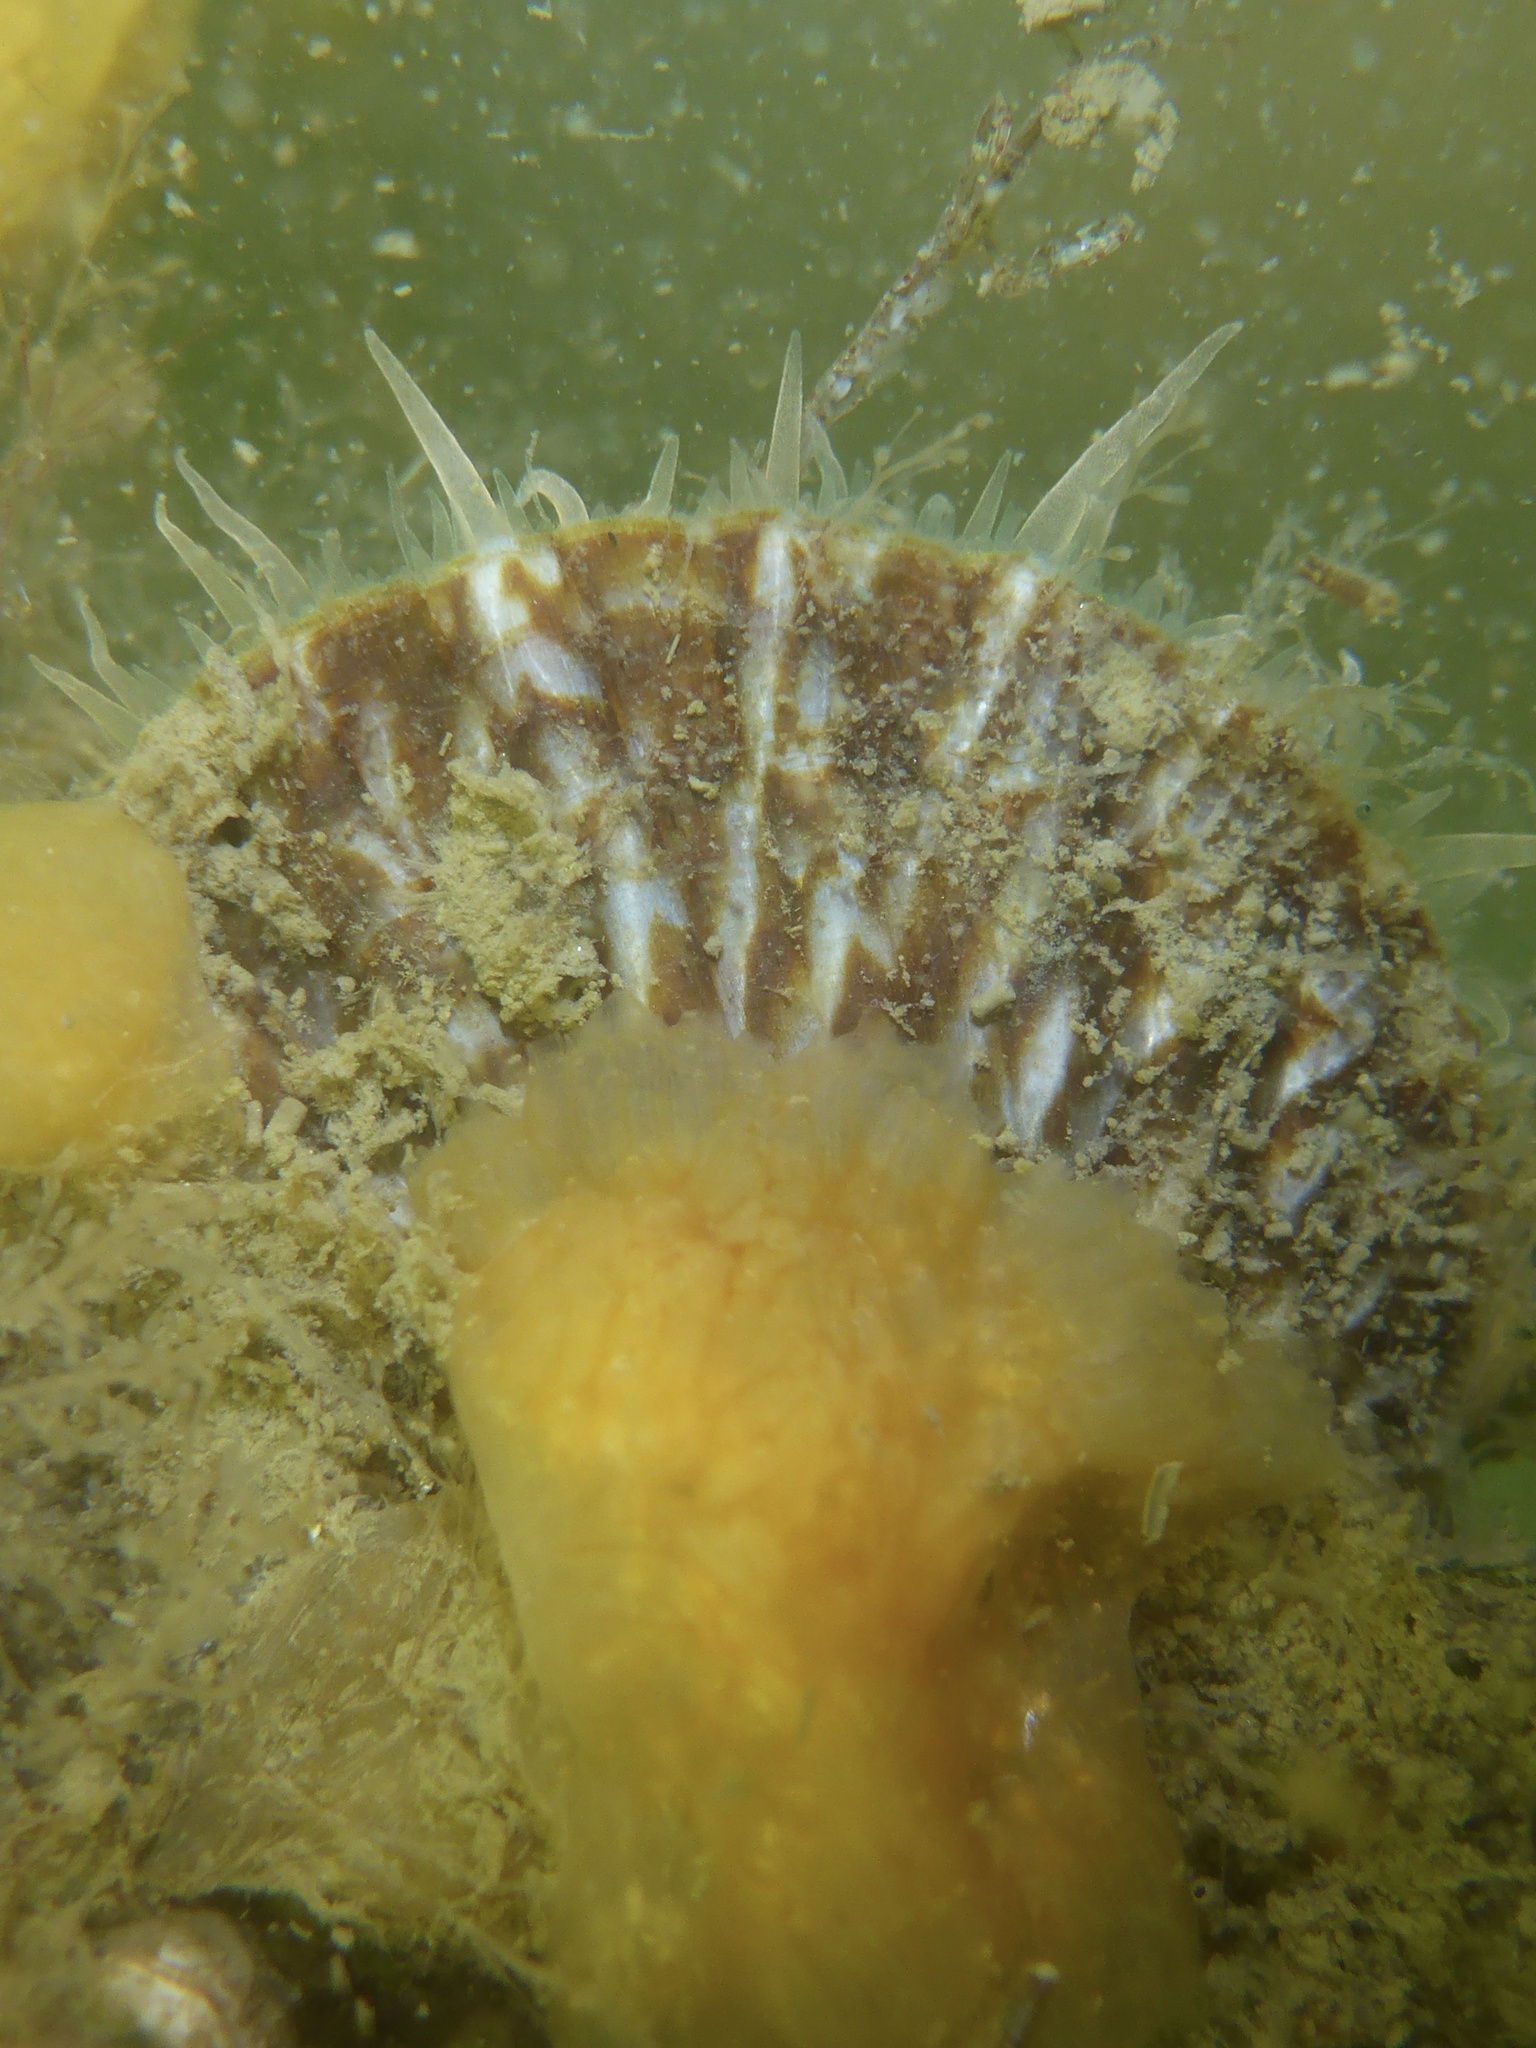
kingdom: Animalia
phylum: Mollusca
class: Bivalvia
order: Pectinida
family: Pectinidae
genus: Leptopecten
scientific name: Leptopecten latiauratus
